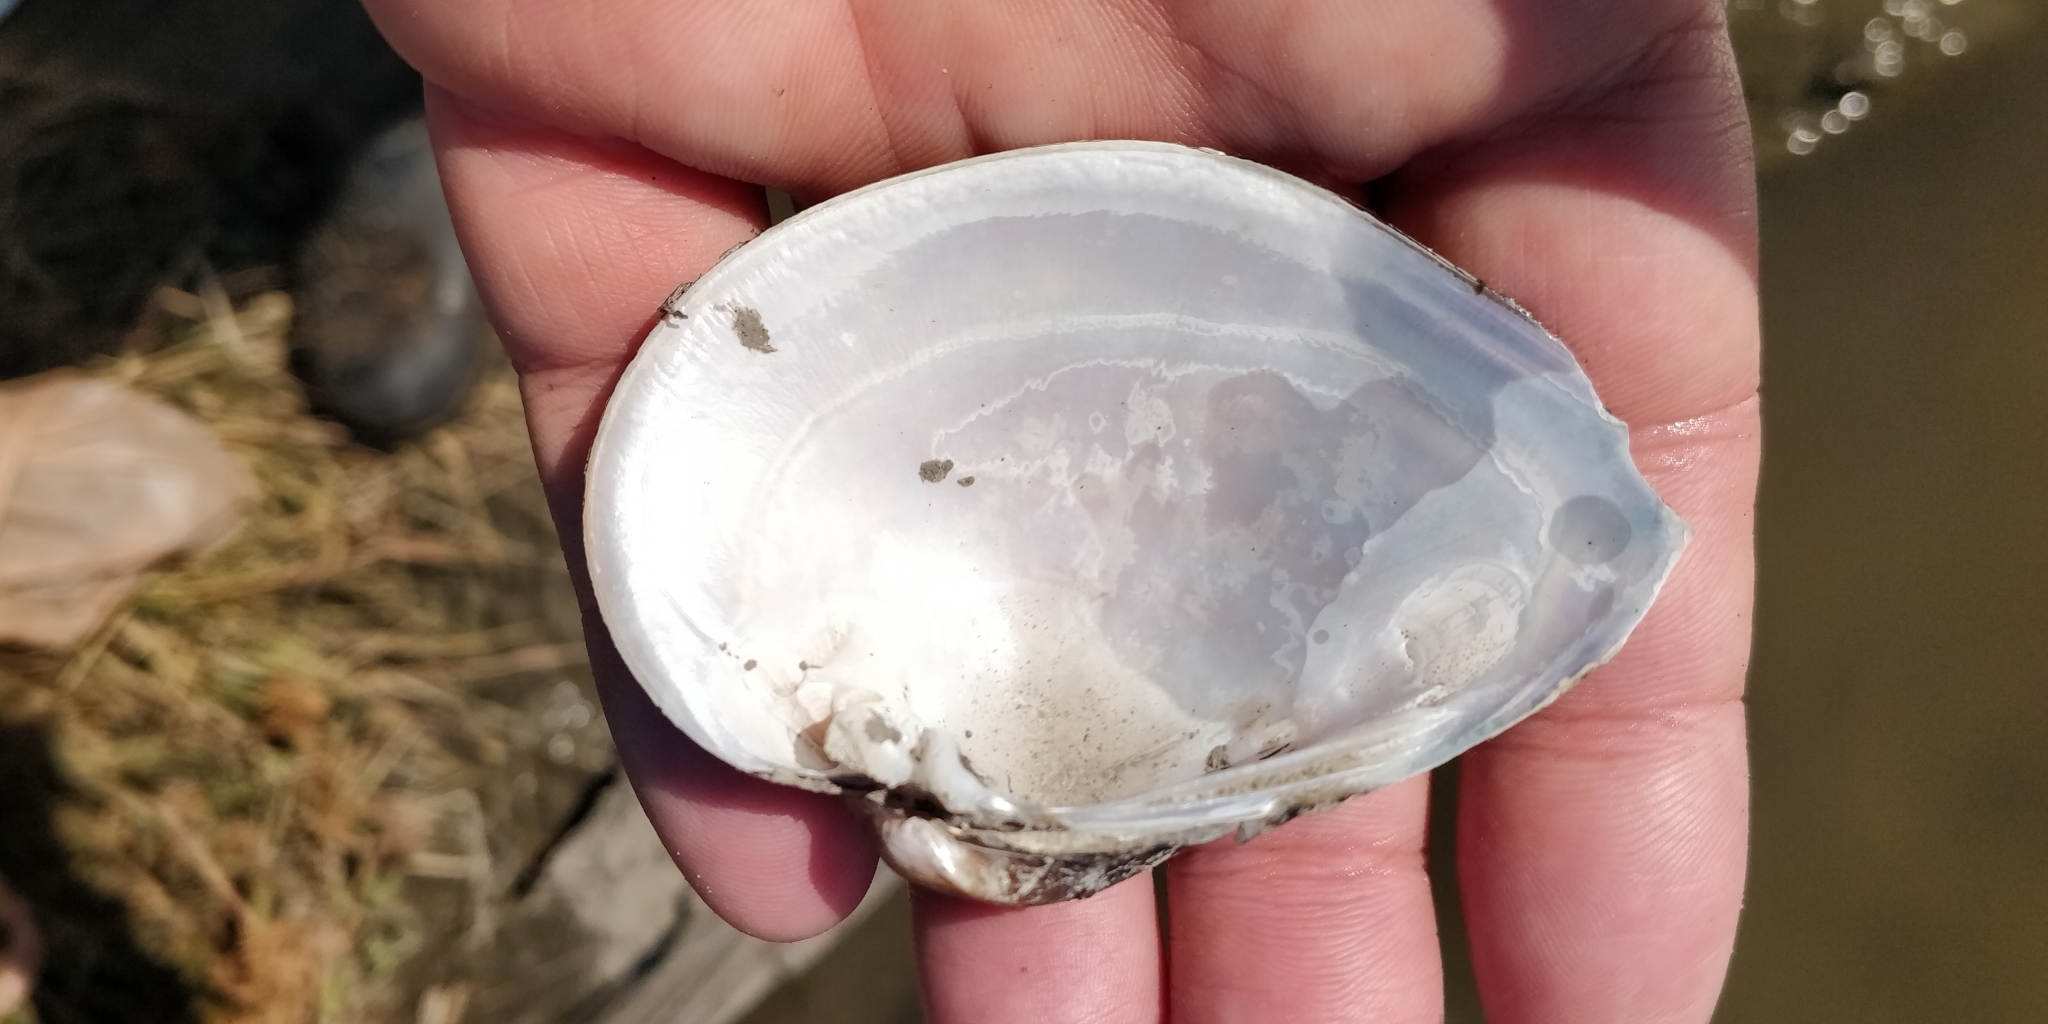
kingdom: Animalia
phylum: Mollusca
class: Bivalvia
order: Unionida
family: Unionidae
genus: Truncilla
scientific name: Truncilla truncata
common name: Deertoe
